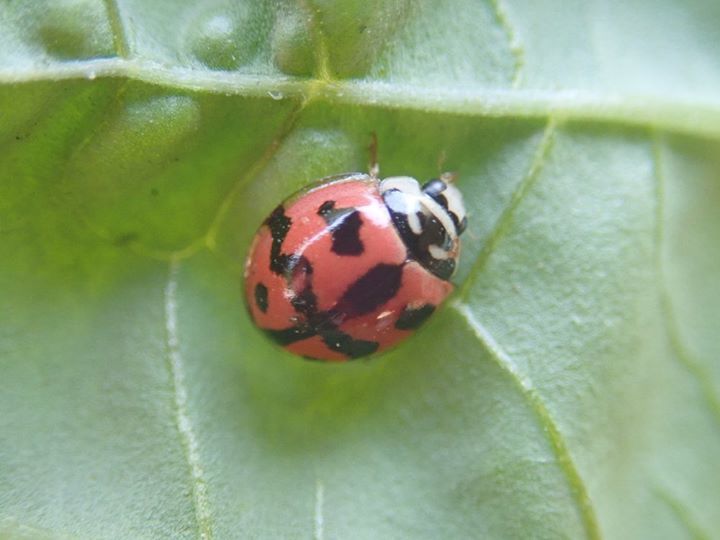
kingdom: Animalia
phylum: Arthropoda
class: Insecta
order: Coleoptera
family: Coccinellidae
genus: Cheilomenes
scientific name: Cheilomenes sexmaculata
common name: Ladybird beetle
